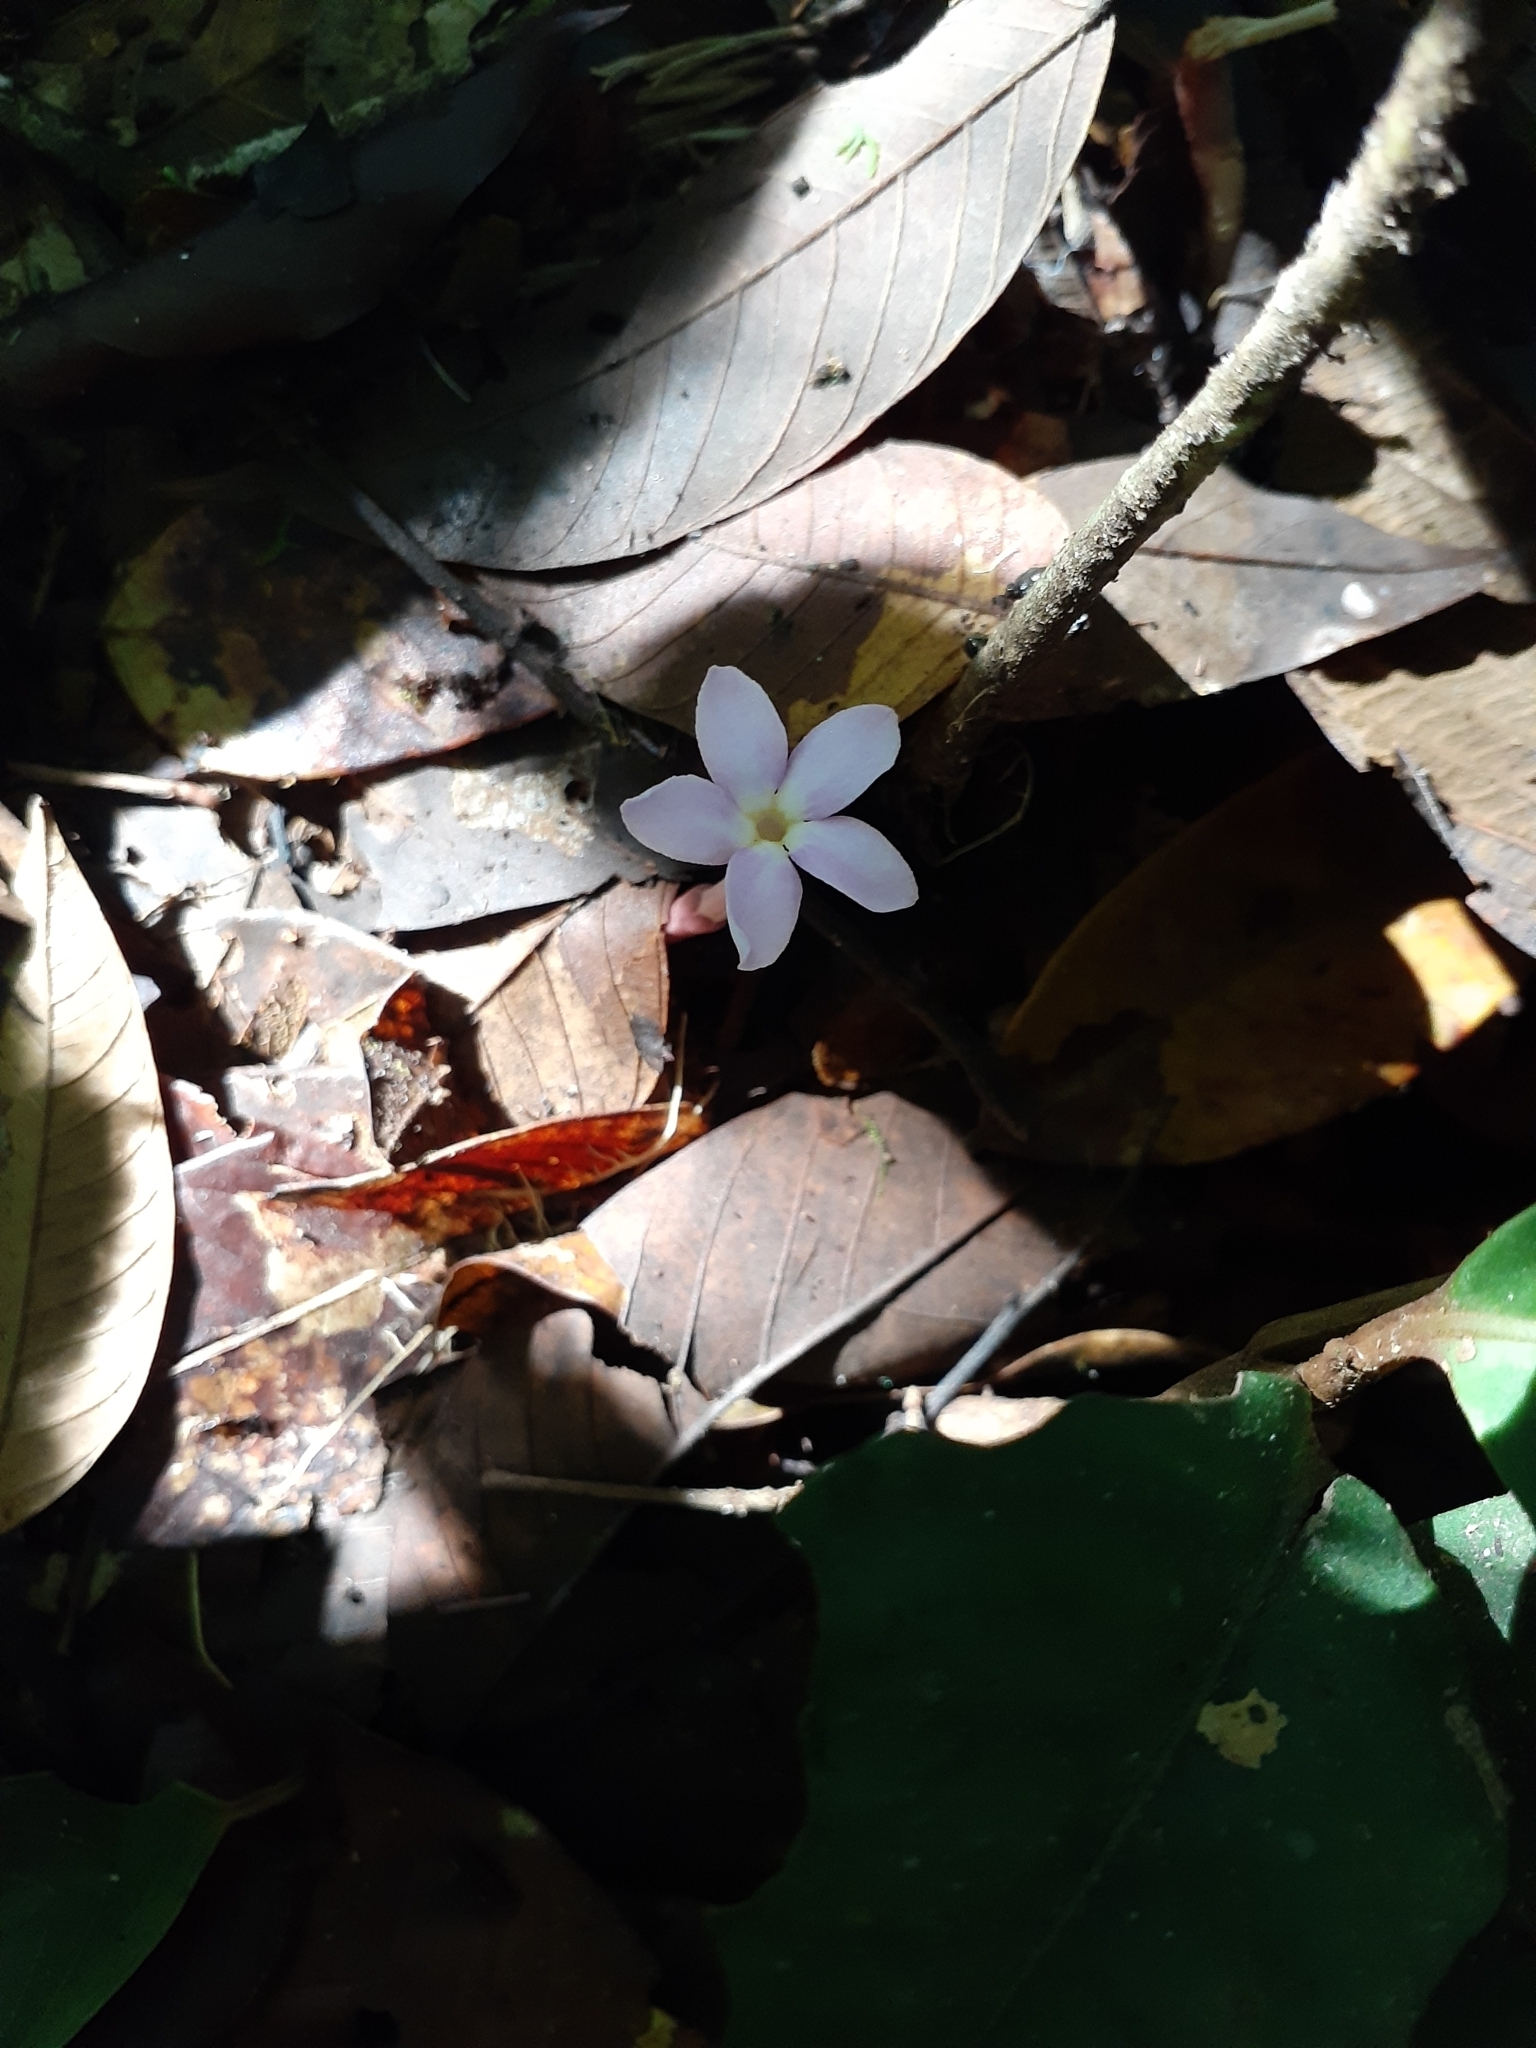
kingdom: Plantae
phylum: Tracheophyta
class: Magnoliopsida
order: Gentianales
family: Gentianaceae
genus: Voyria
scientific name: Voyria truncata
